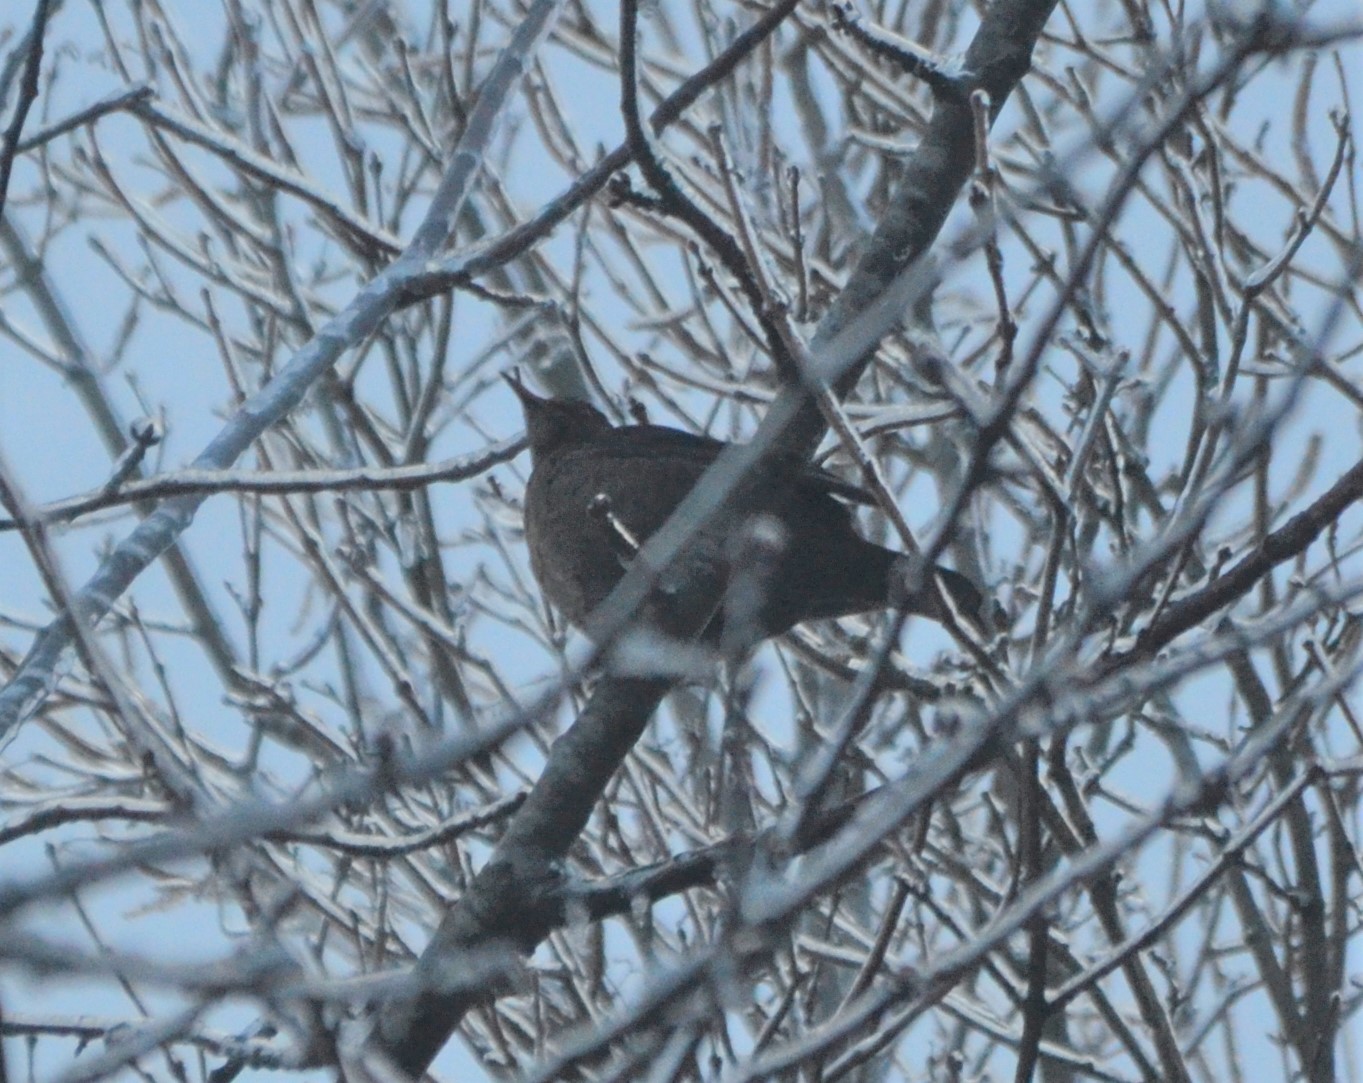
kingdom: Animalia
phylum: Chordata
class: Aves
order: Passeriformes
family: Turdidae
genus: Turdus
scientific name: Turdus merula
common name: Common blackbird
